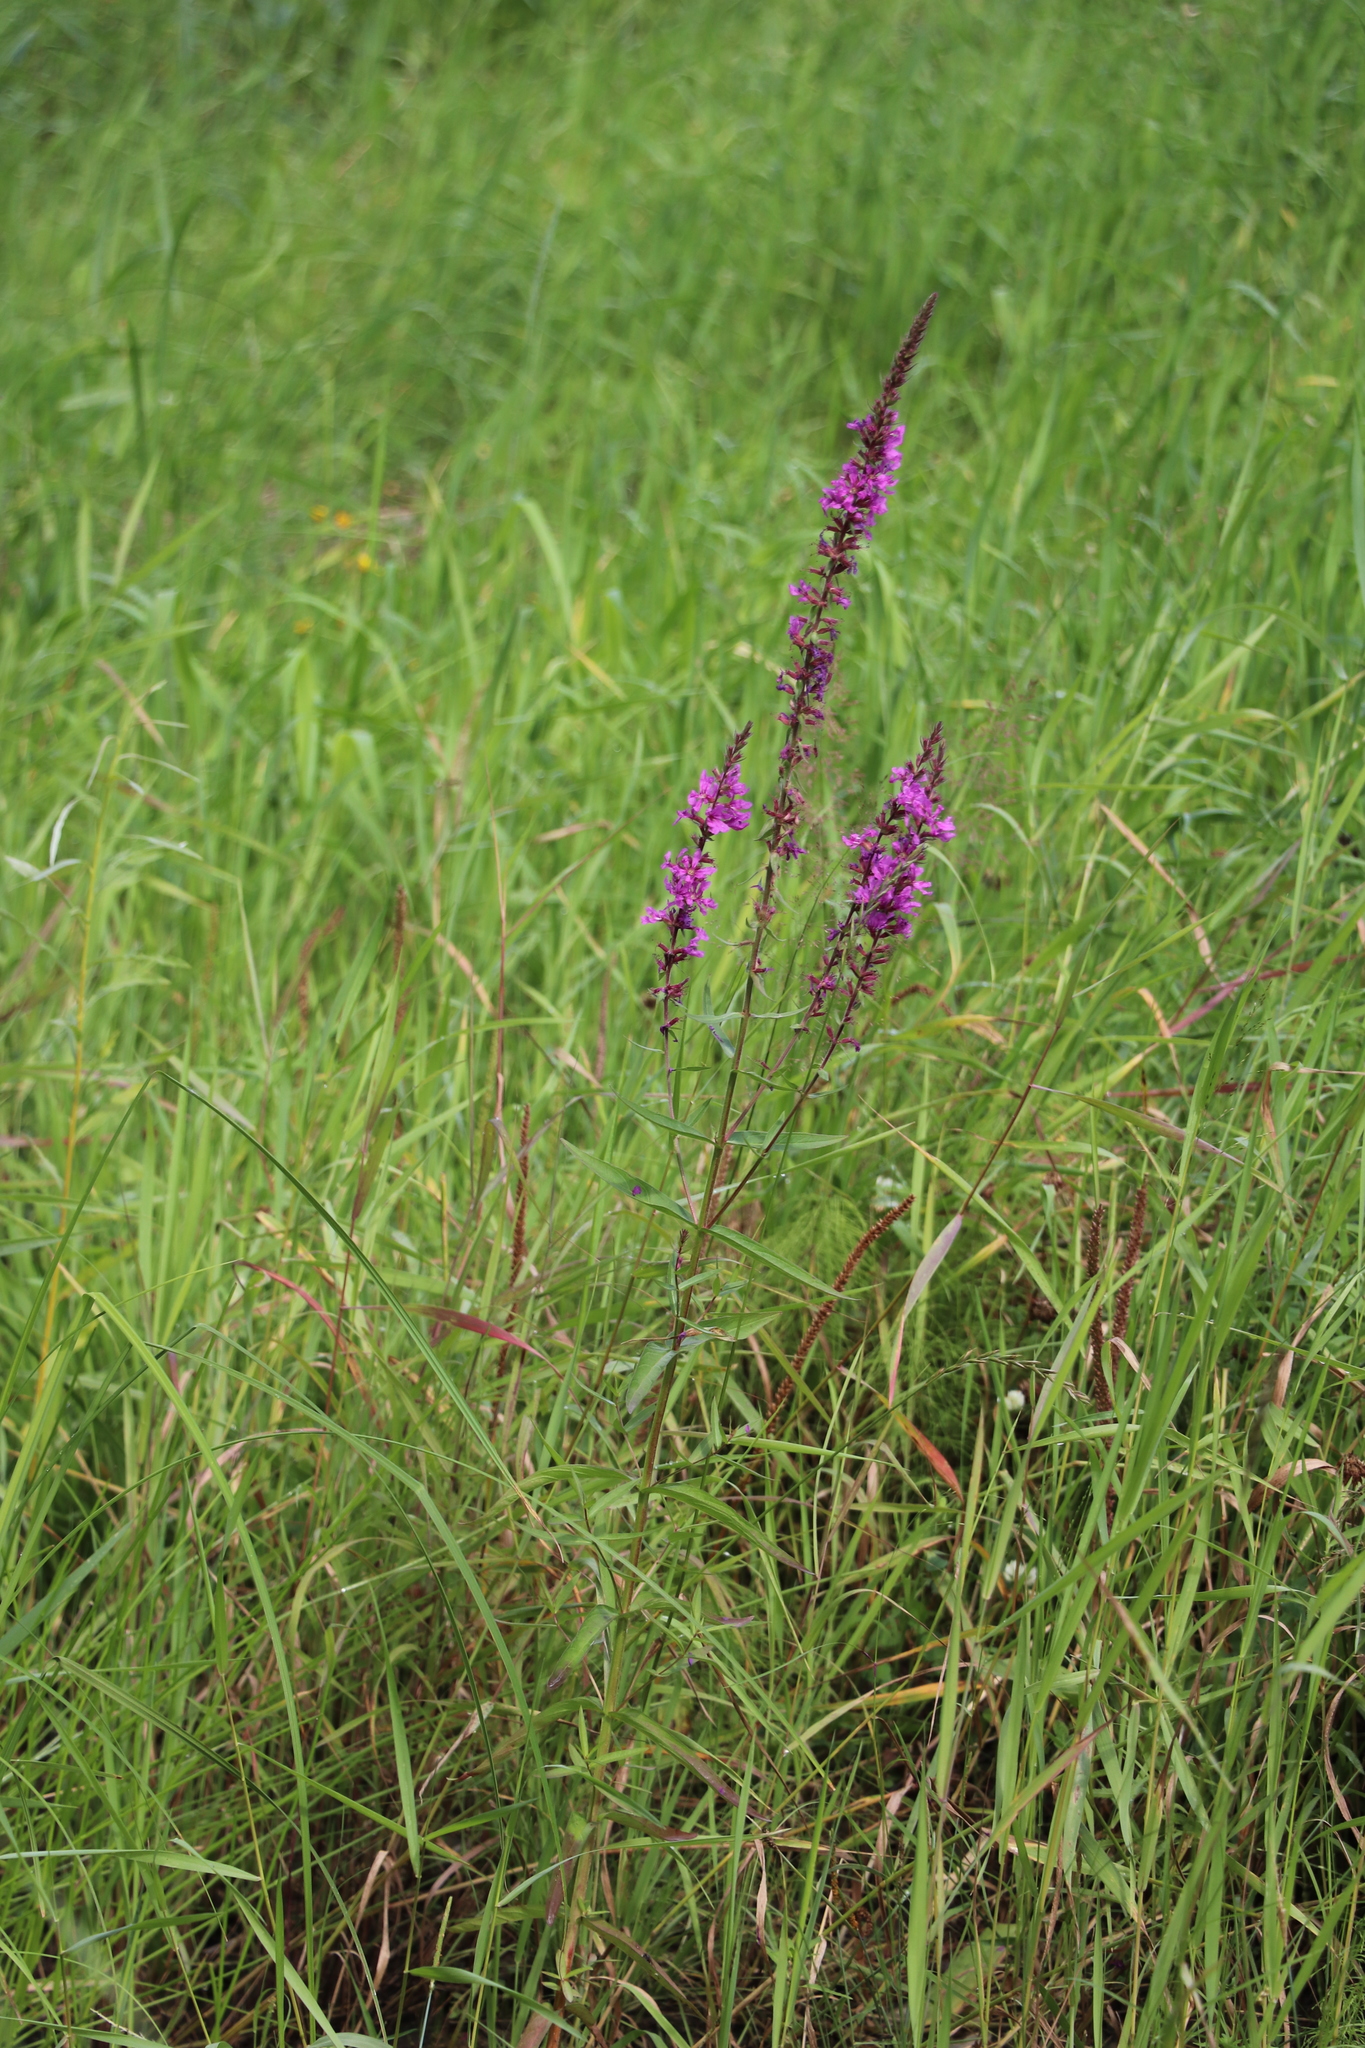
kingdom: Plantae
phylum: Tracheophyta
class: Magnoliopsida
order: Myrtales
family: Lythraceae
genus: Lythrum
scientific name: Lythrum salicaria
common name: Purple loosestrife
